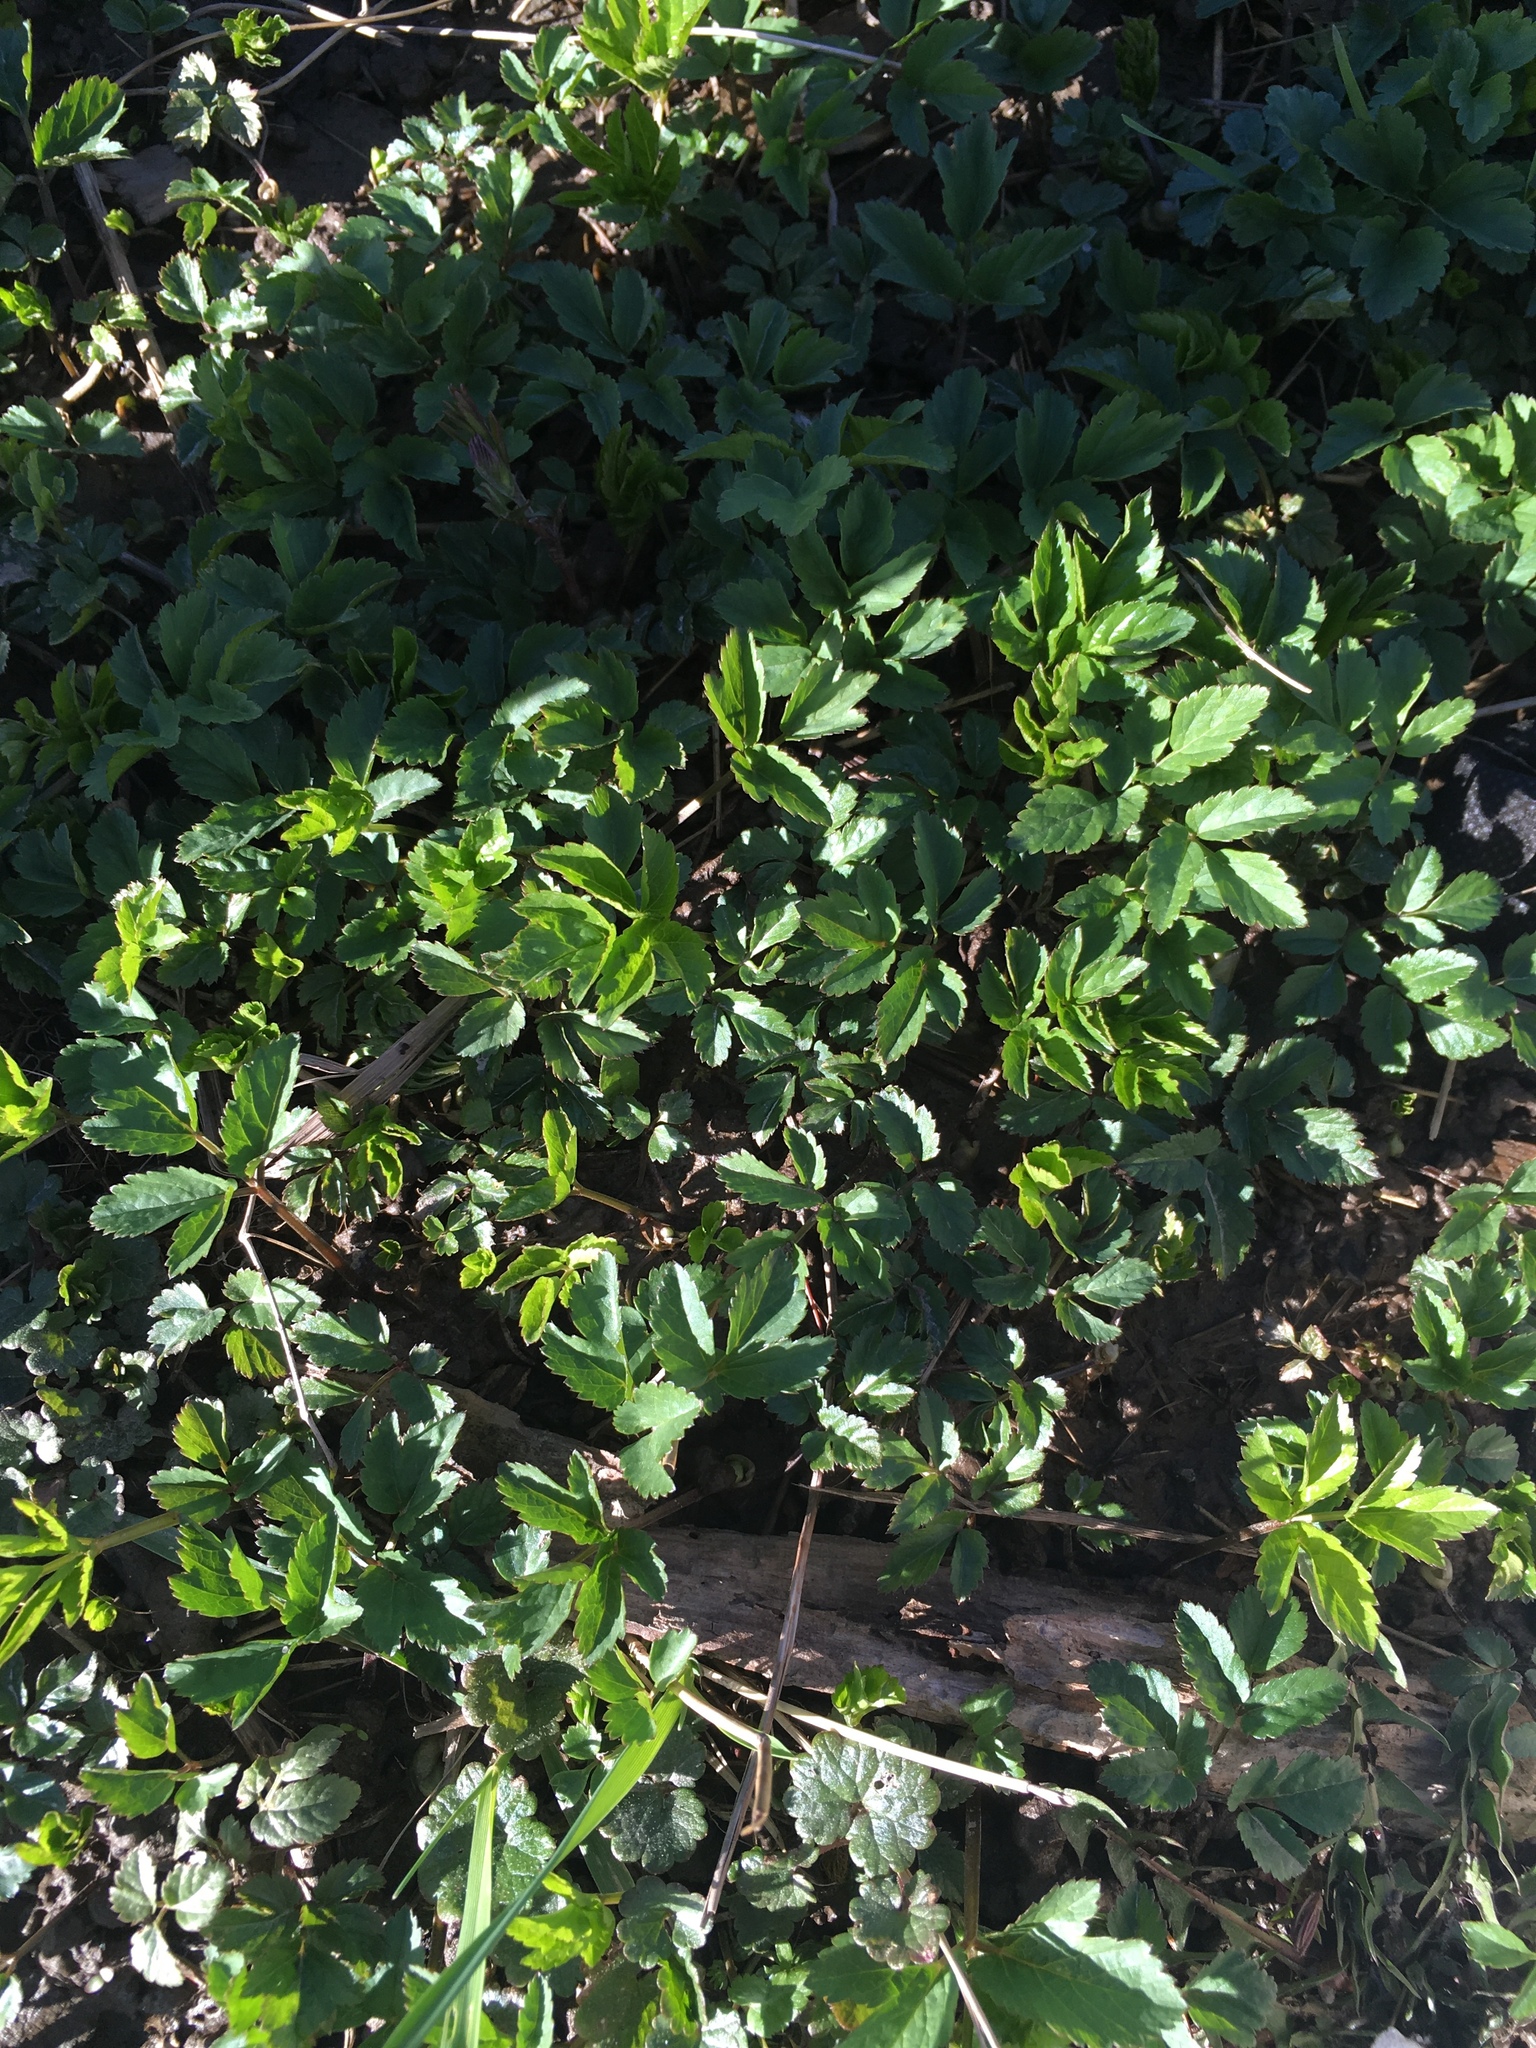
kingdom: Plantae
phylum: Tracheophyta
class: Magnoliopsida
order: Apiales
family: Apiaceae
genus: Aegopodium
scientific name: Aegopodium podagraria
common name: Ground-elder
